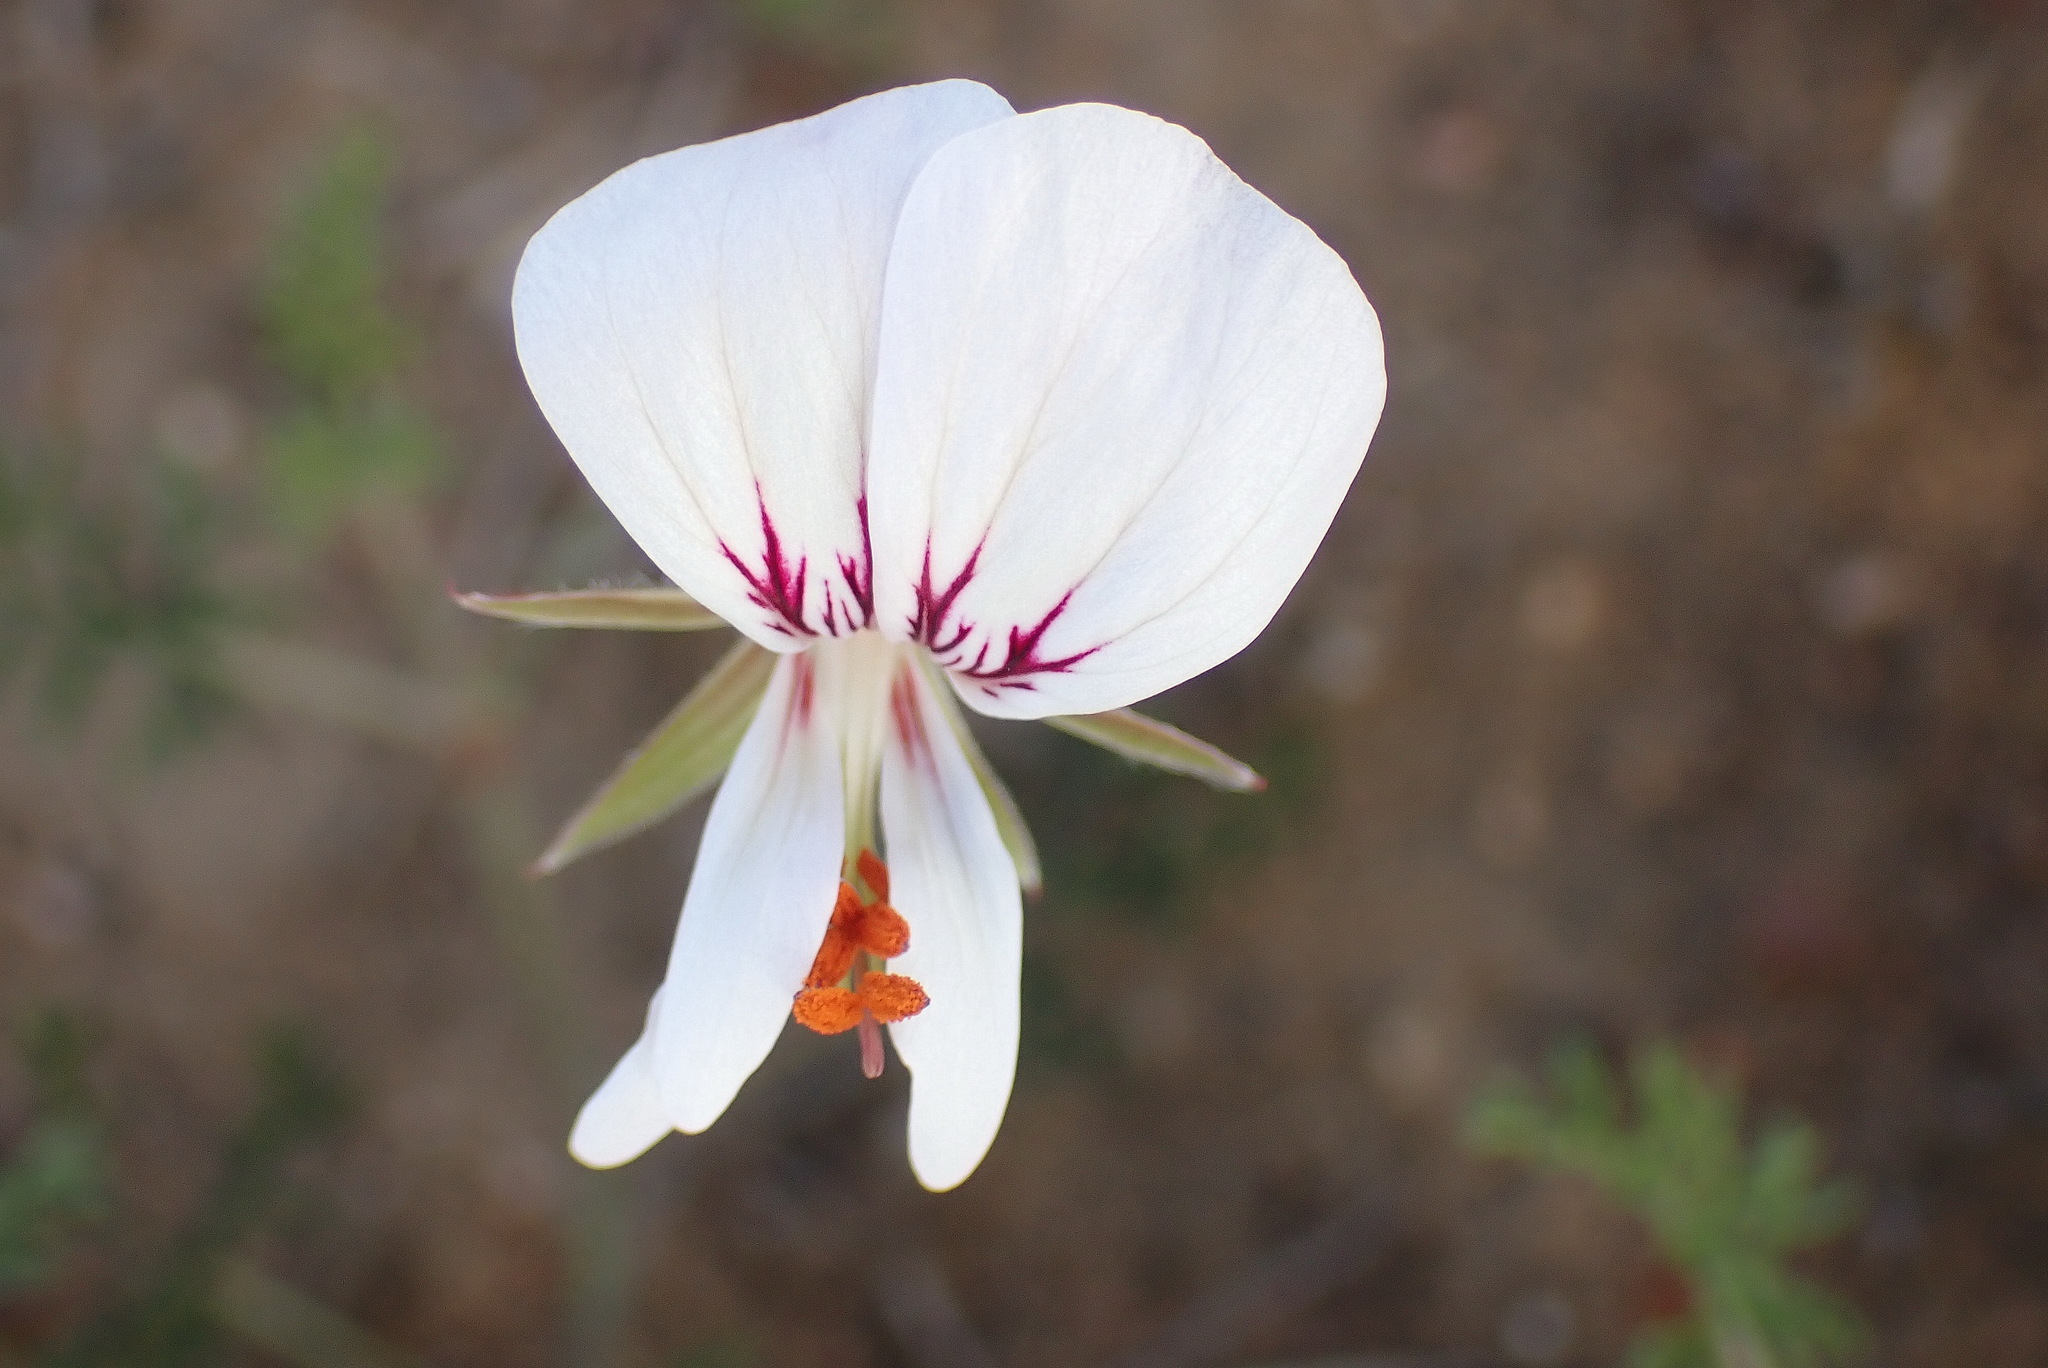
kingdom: Plantae
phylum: Tracheophyta
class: Magnoliopsida
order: Geraniales
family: Geraniaceae
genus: Pelargonium
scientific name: Pelargonium caucalifolium
